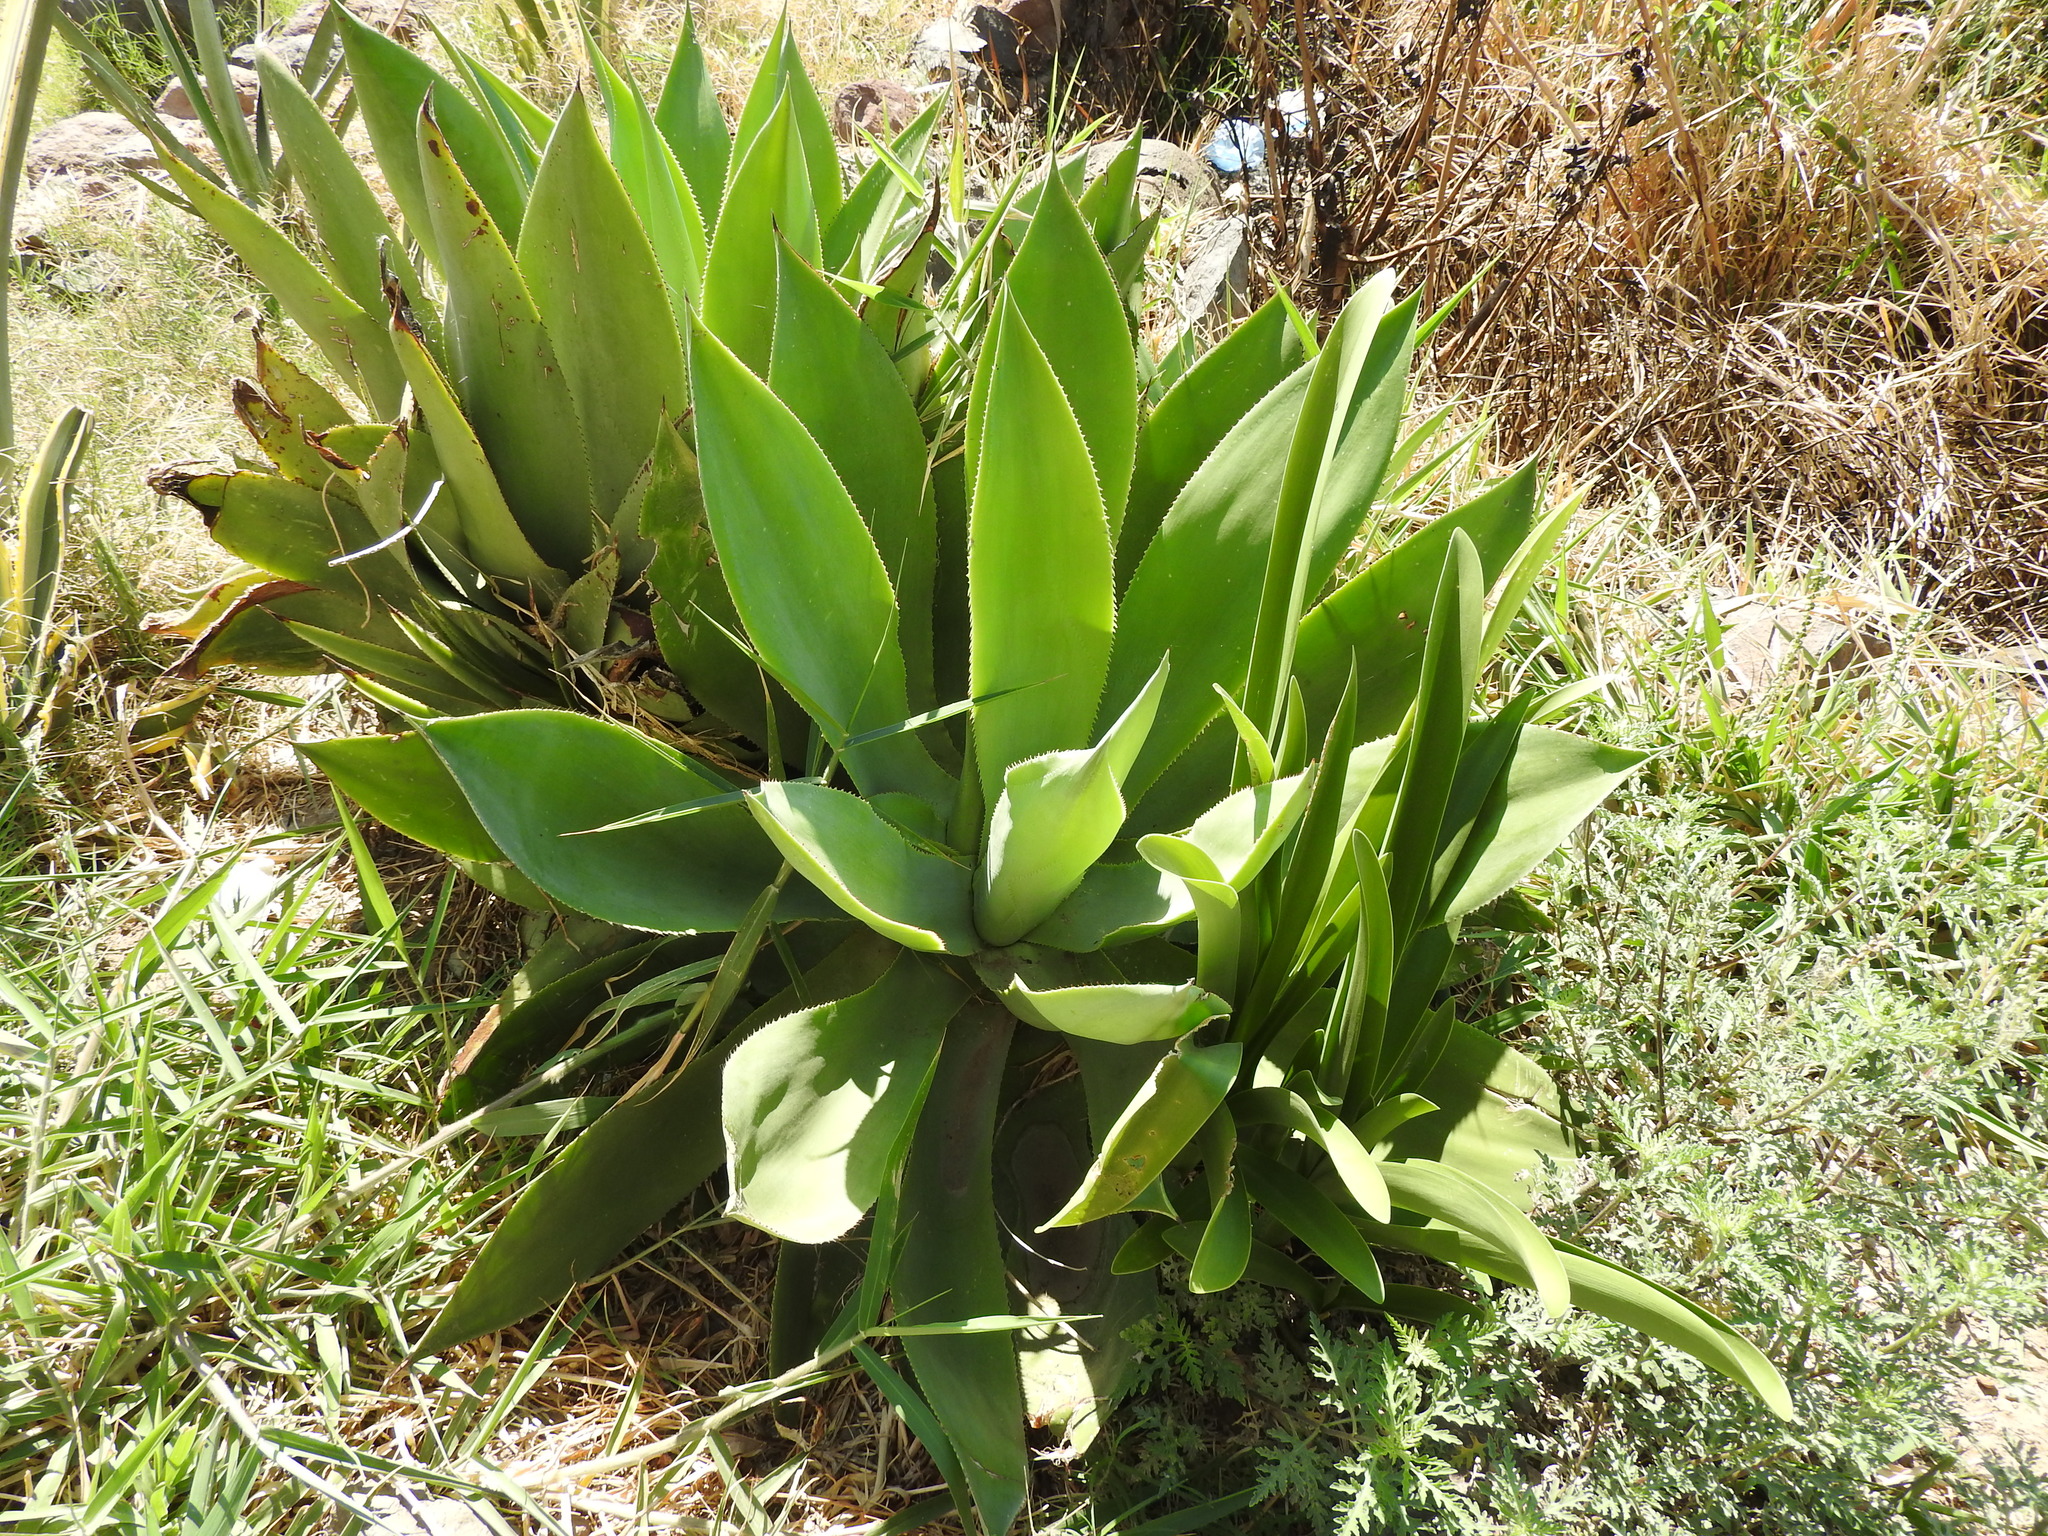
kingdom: Plantae
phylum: Tracheophyta
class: Liliopsida
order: Asparagales
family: Asparagaceae
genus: Agave
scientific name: Agave mitis
